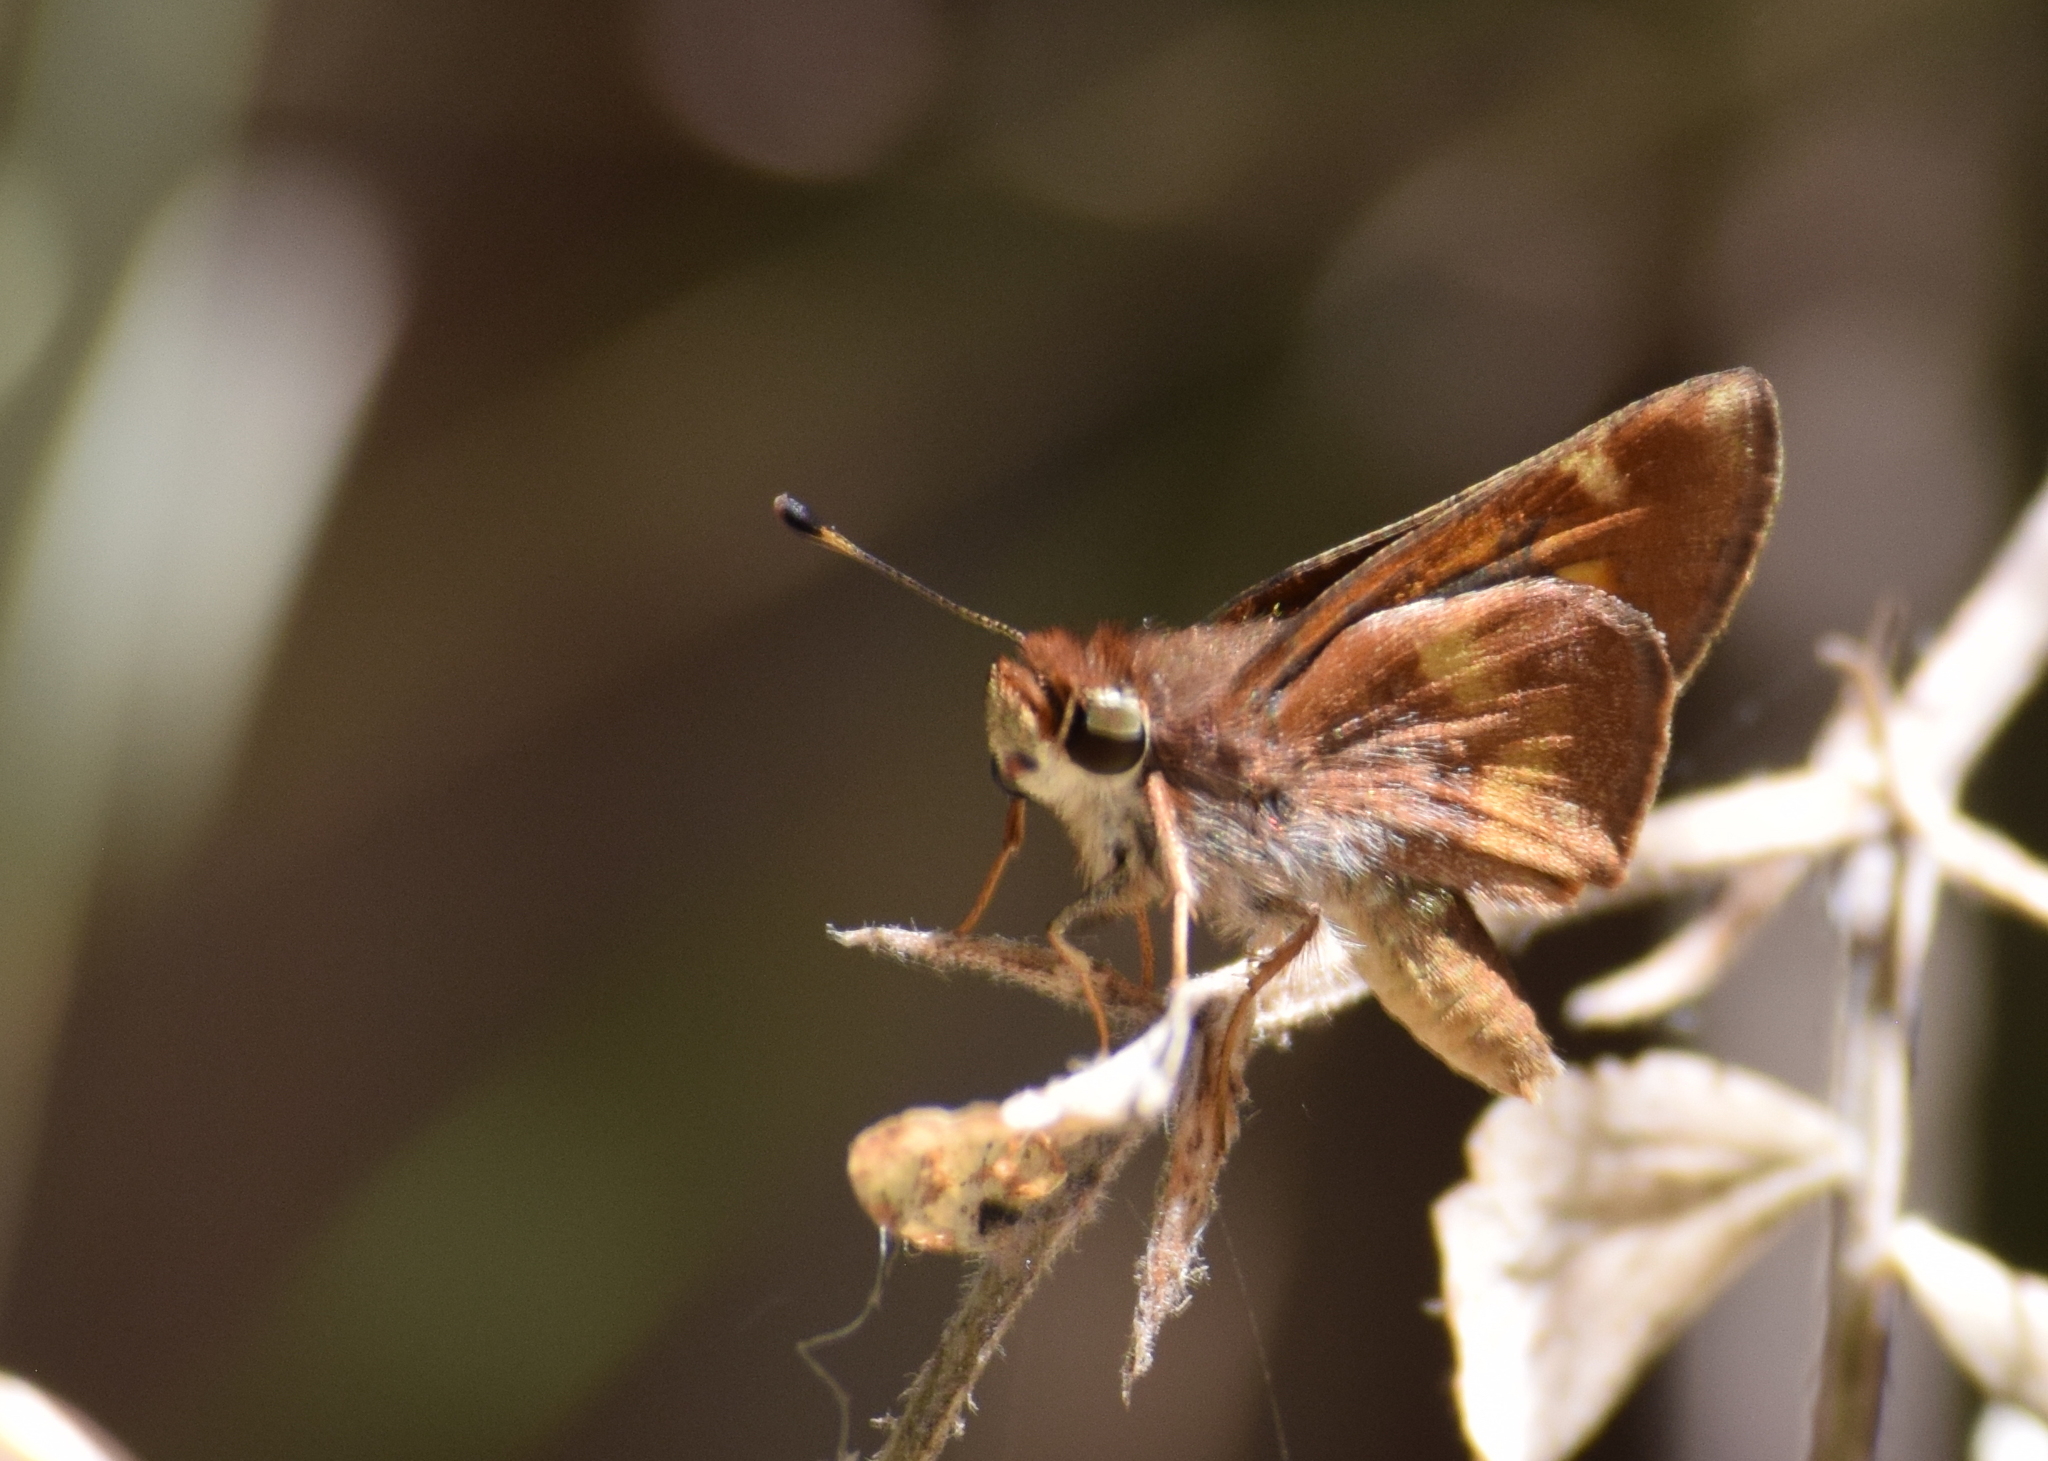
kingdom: Animalia
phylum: Arthropoda
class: Insecta
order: Lepidoptera
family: Hesperiidae
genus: Lon
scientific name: Lon melane
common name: Umber skipper
